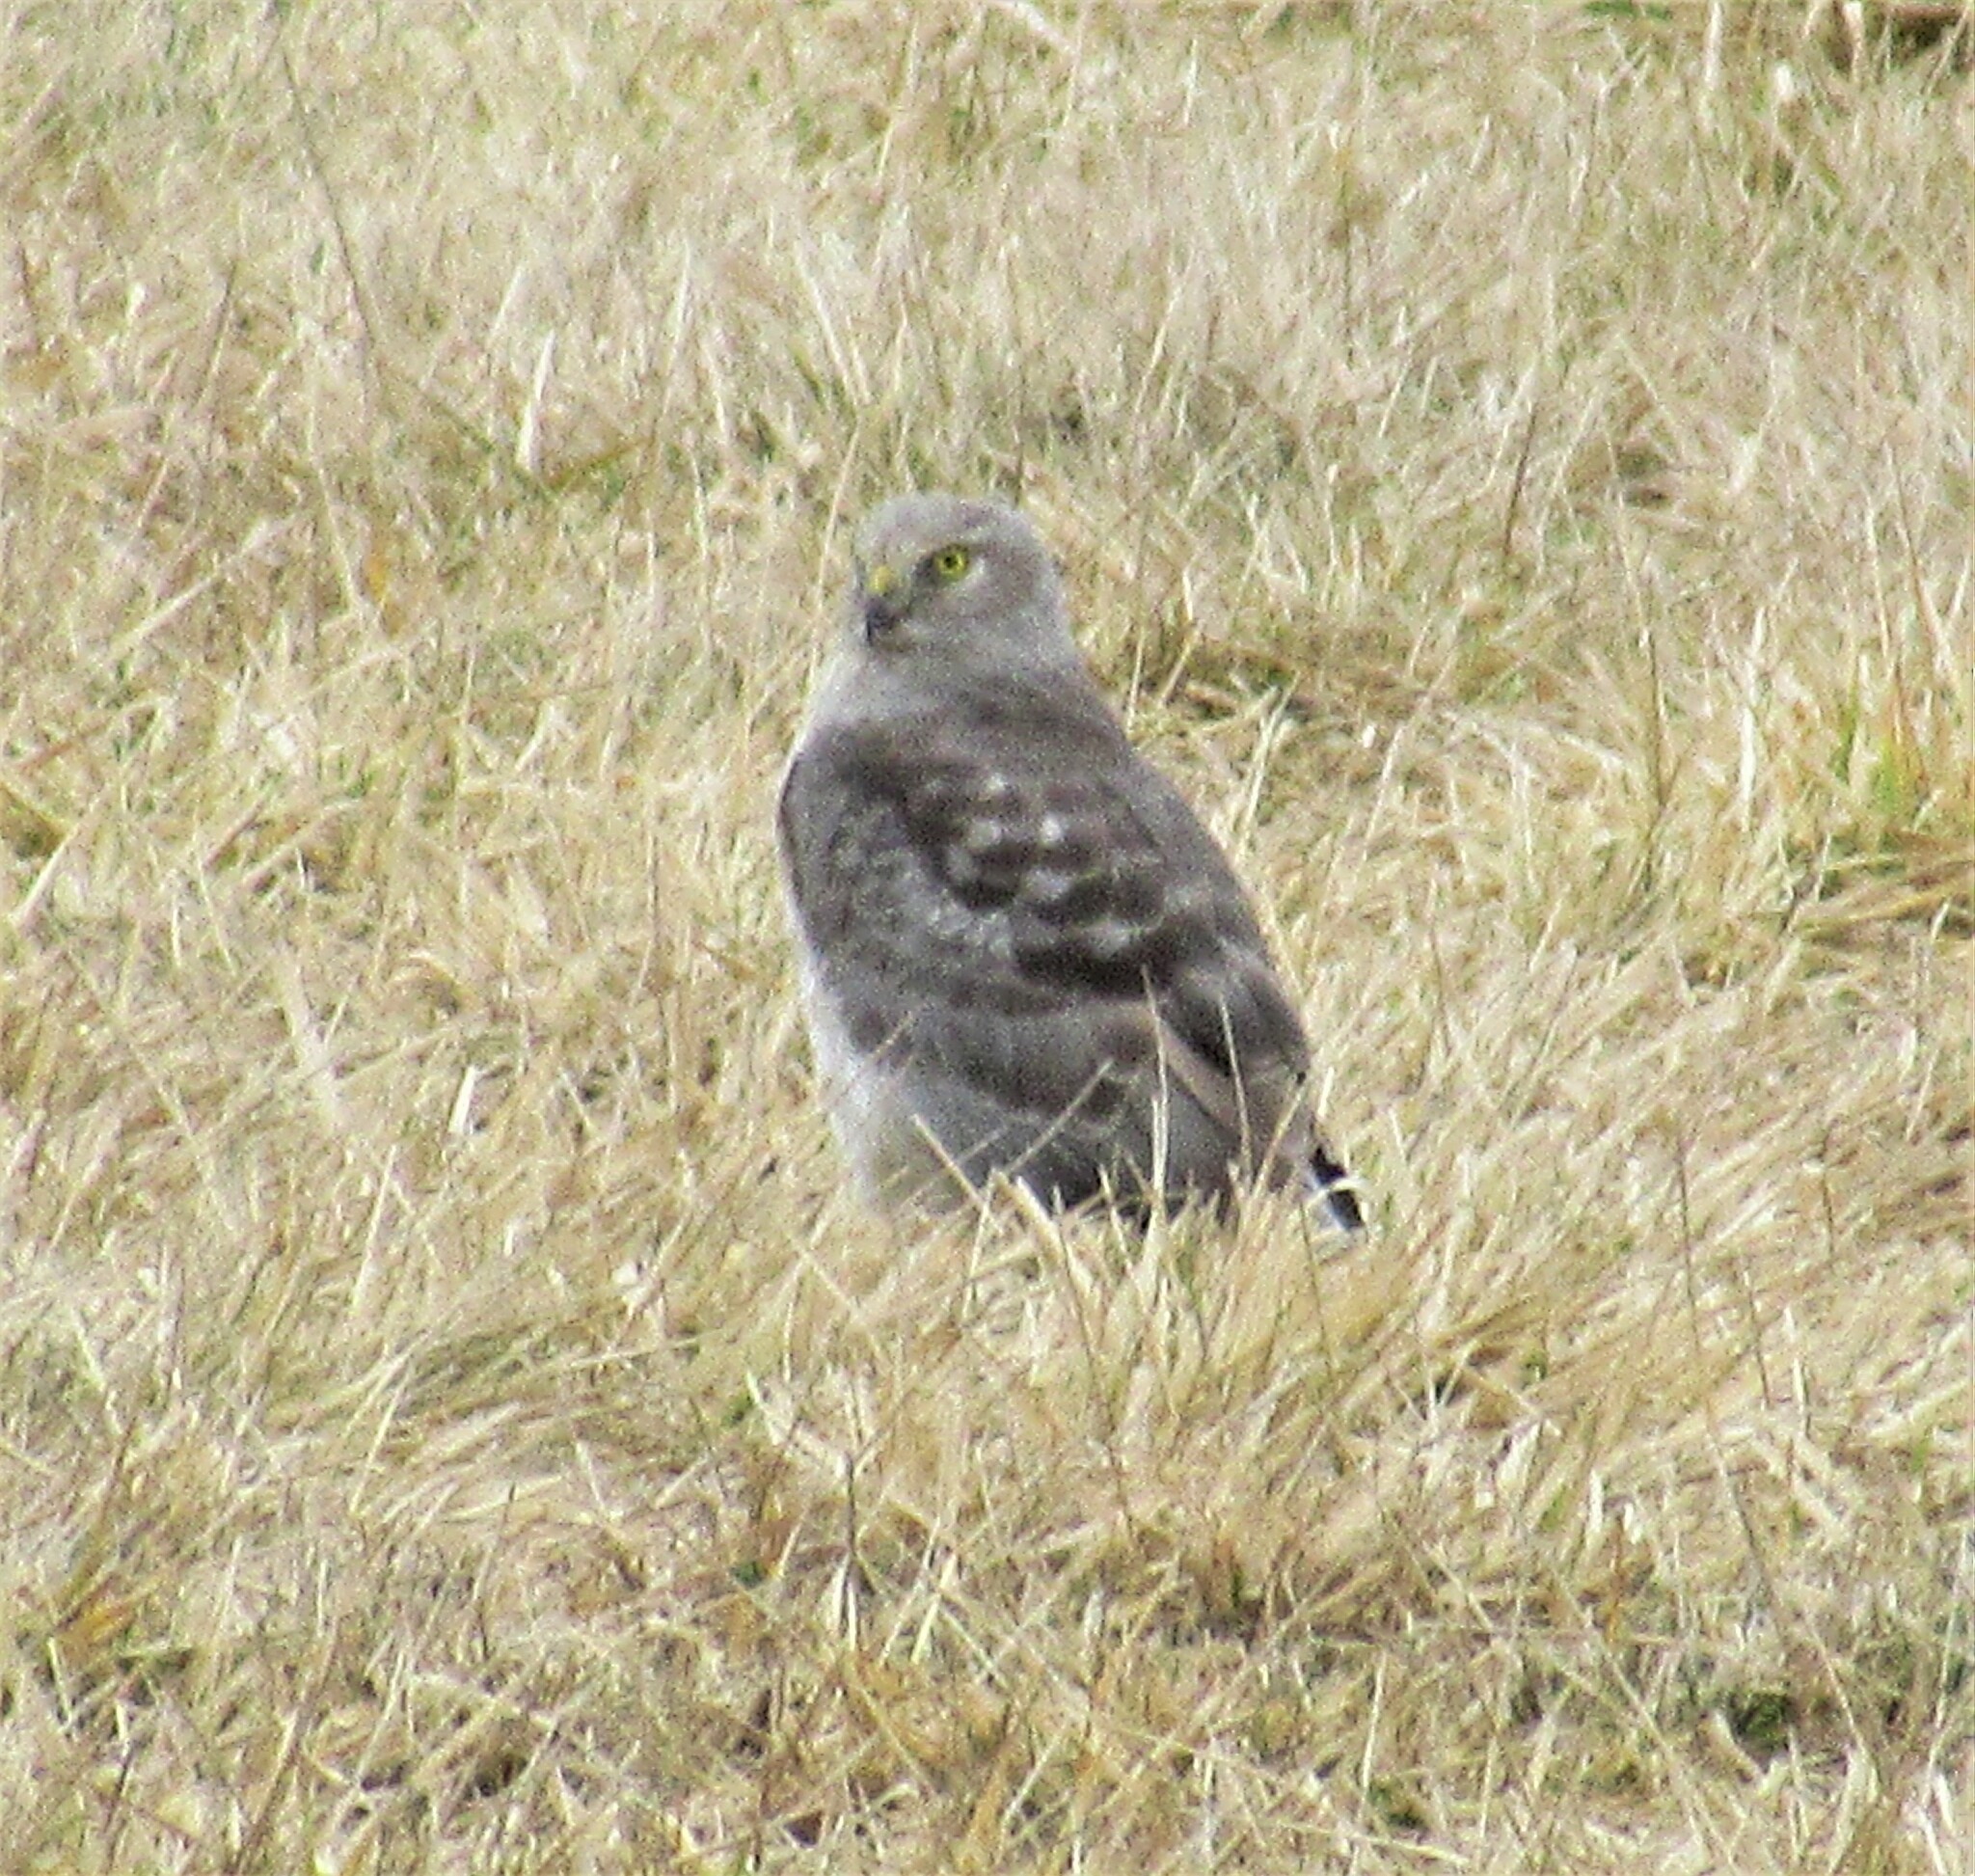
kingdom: Animalia
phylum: Chordata
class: Aves
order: Accipitriformes
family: Accipitridae
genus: Circus
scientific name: Circus cyaneus
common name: Hen harrier
